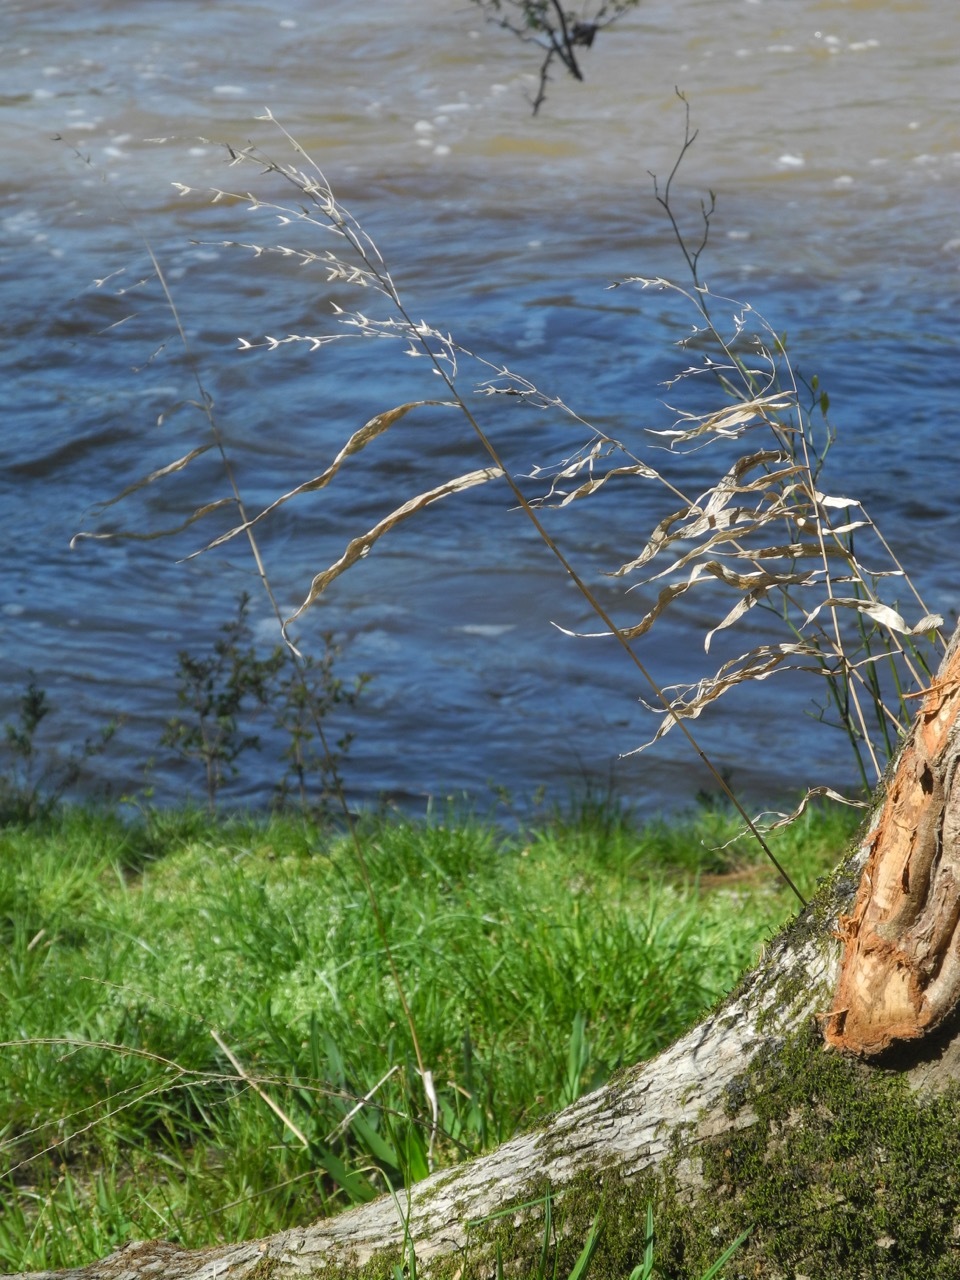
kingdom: Plantae
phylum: Tracheophyta
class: Liliopsida
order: Poales
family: Poaceae
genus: Chasmanthium
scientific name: Chasmanthium latifolium
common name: Broad-leaved chasmanthium
